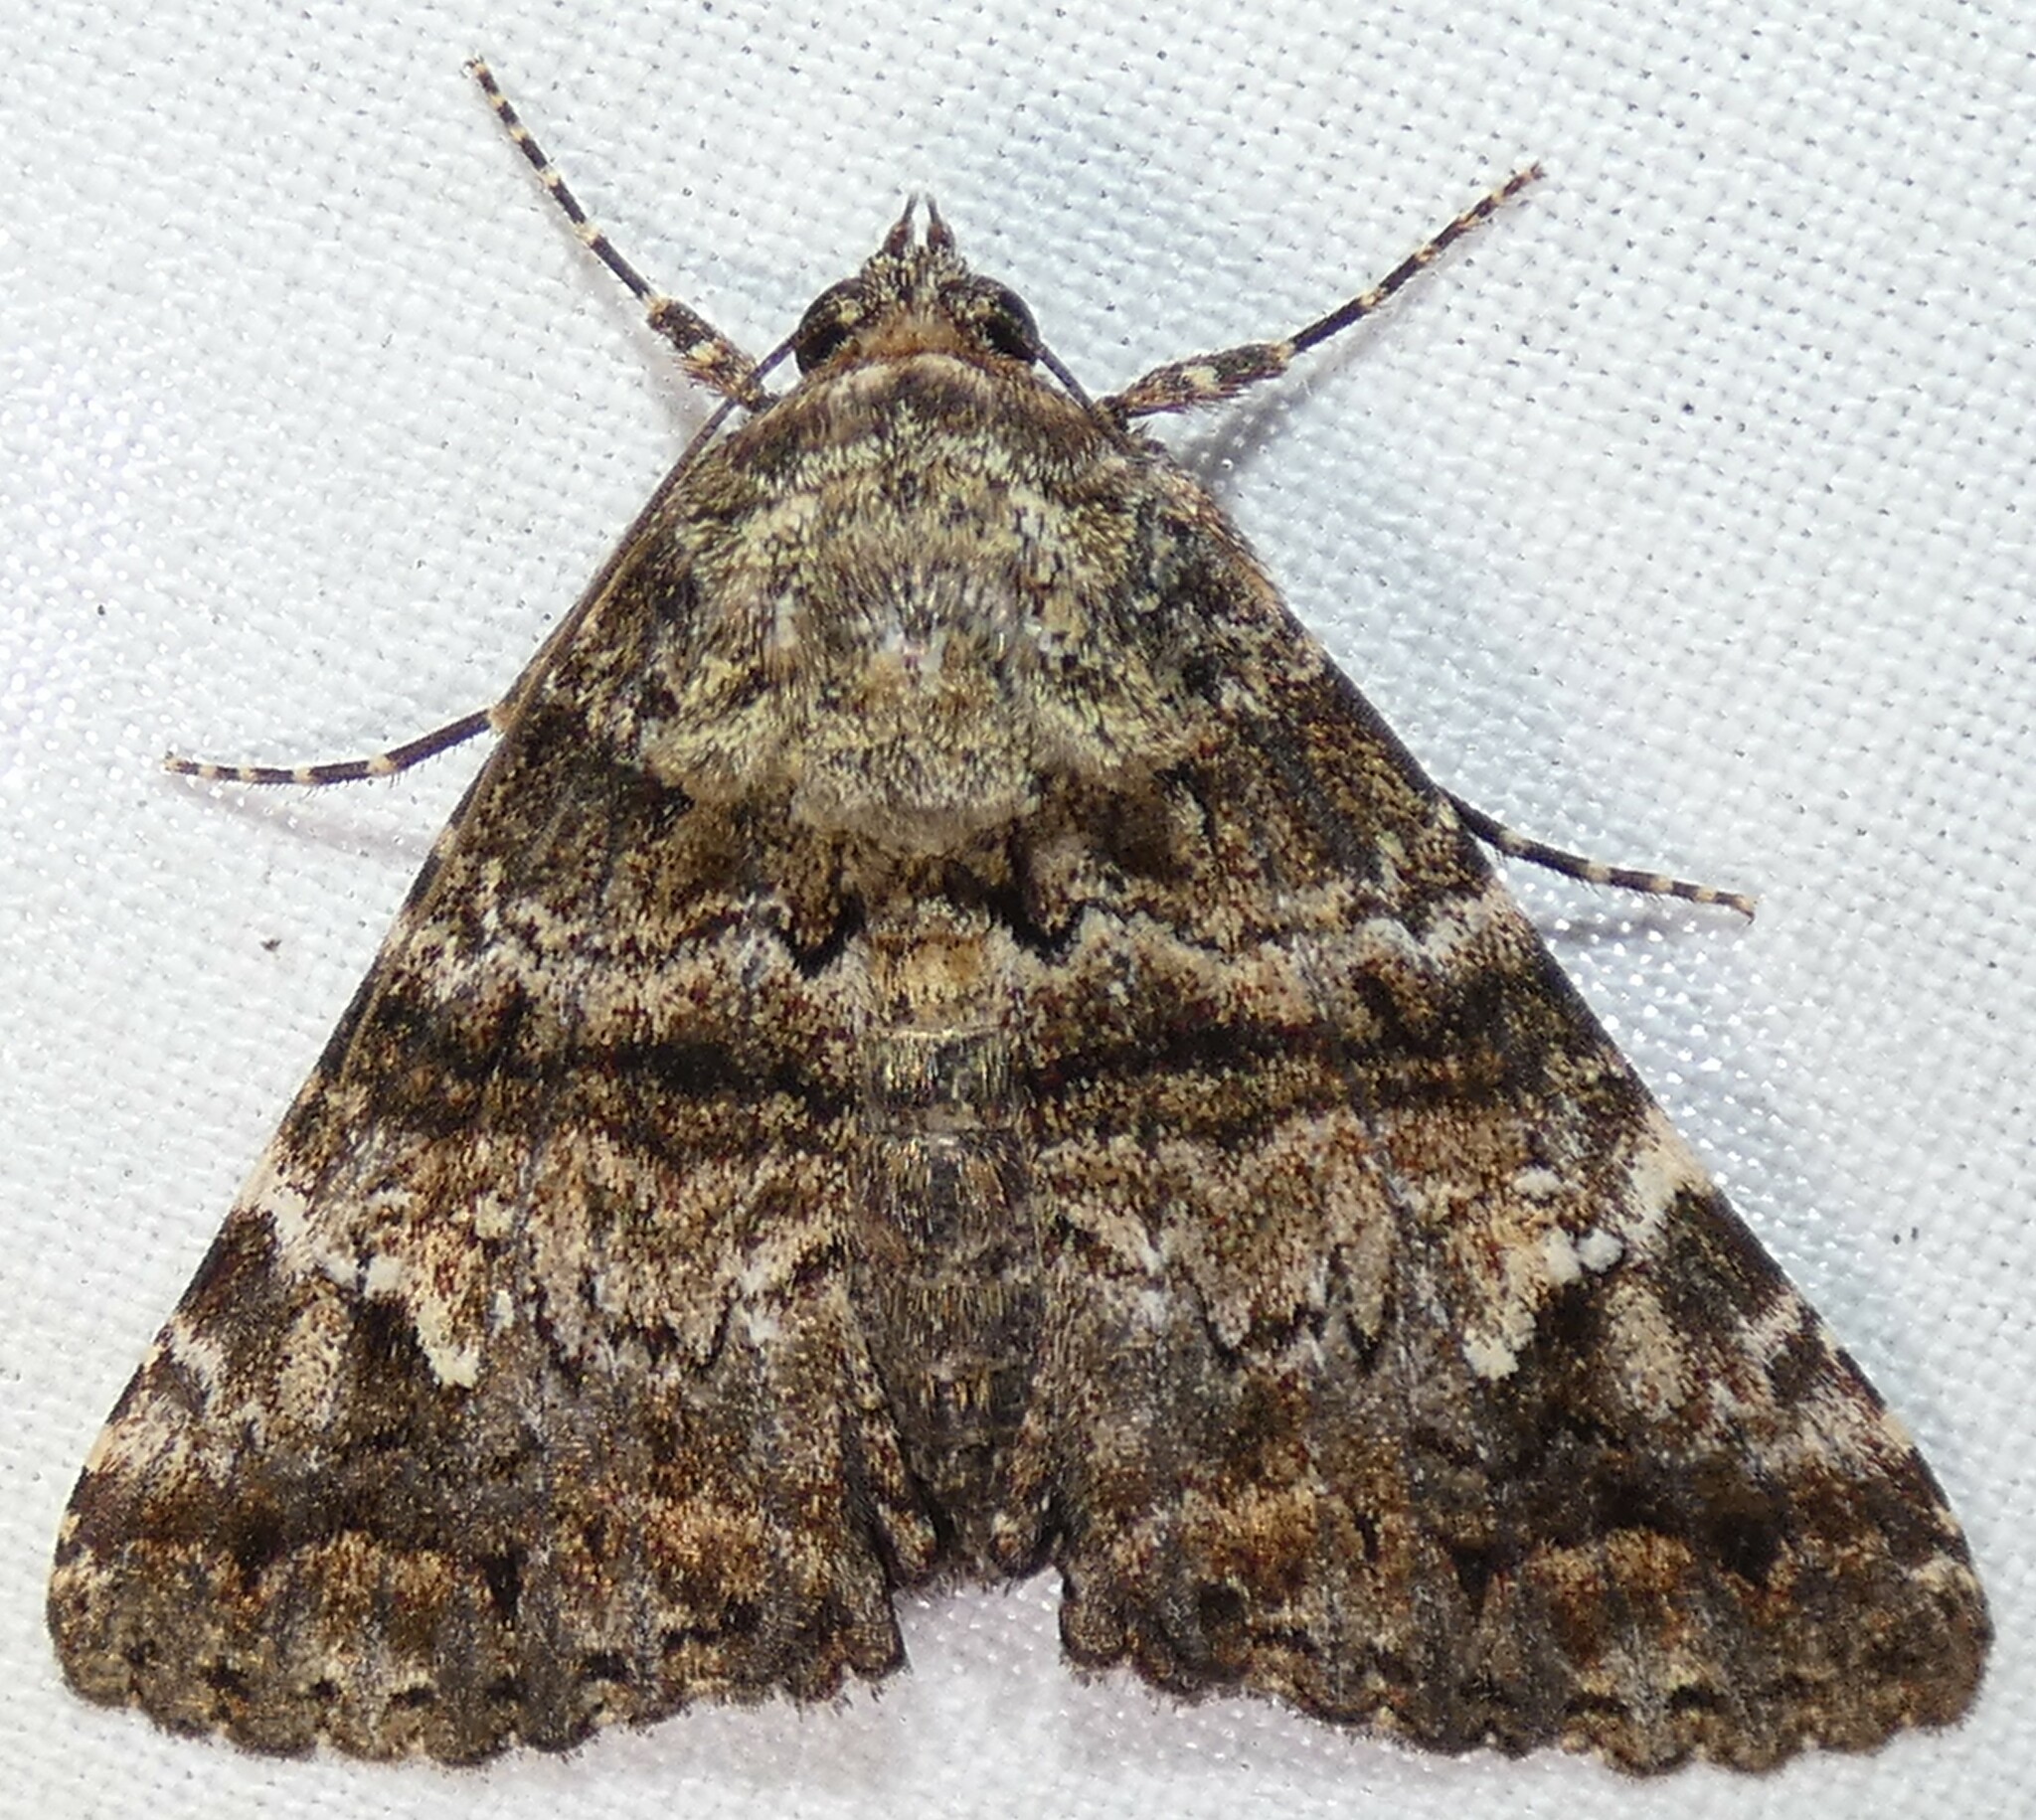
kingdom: Animalia
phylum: Arthropoda
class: Insecta
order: Lepidoptera
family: Erebidae
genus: Metria
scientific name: Metria amella
